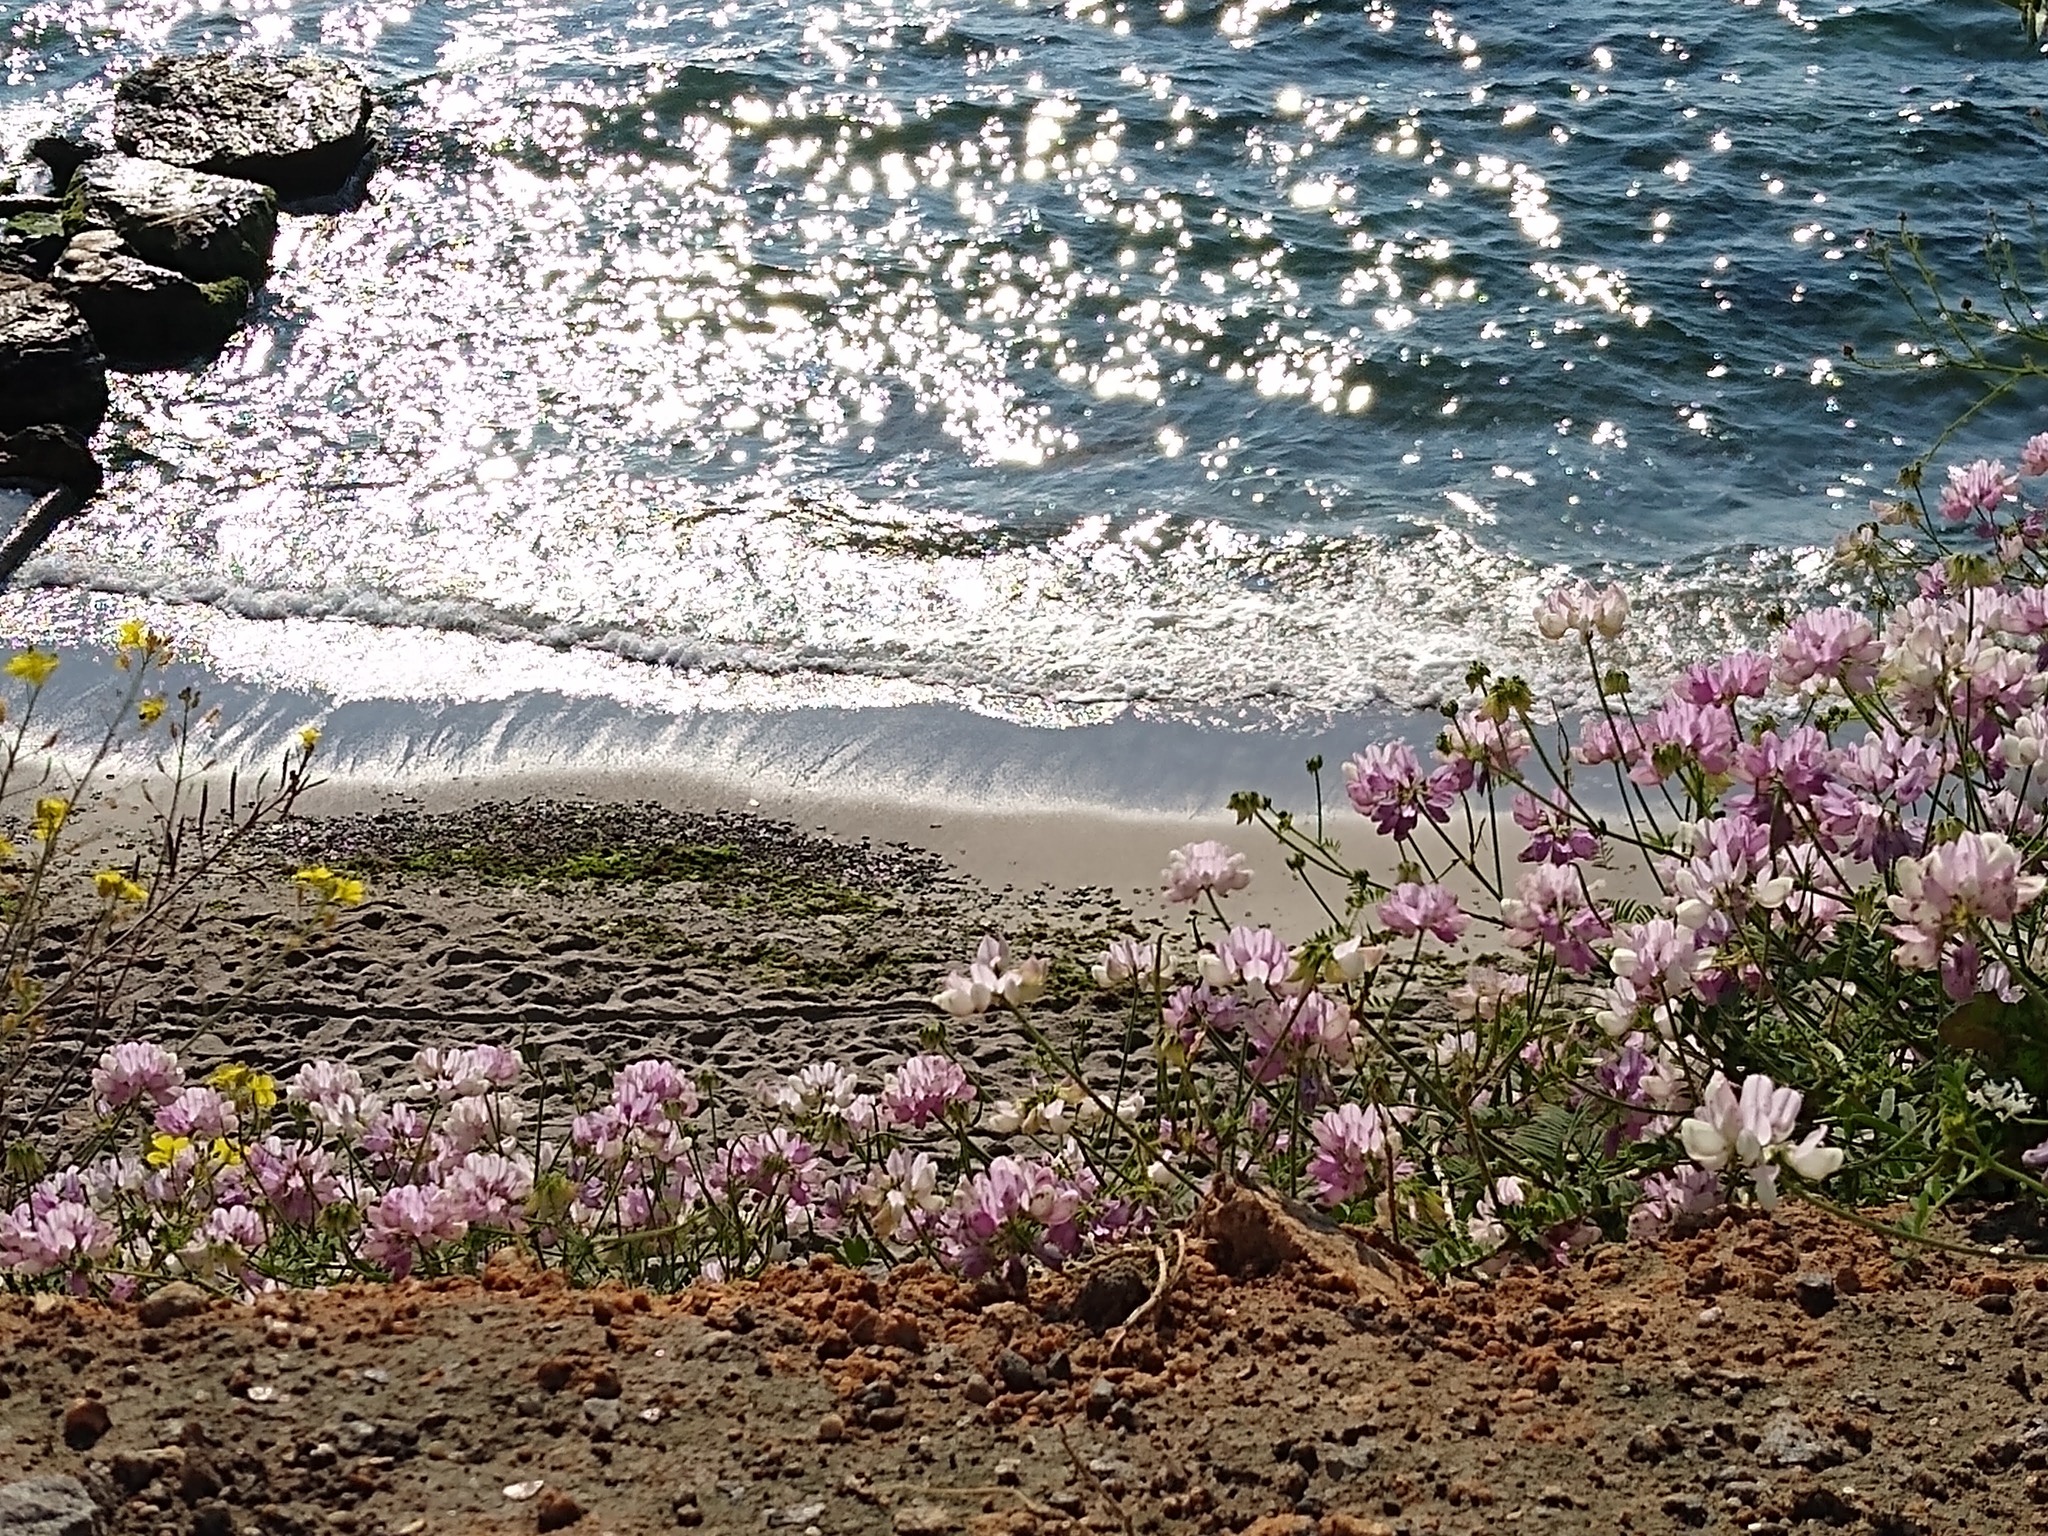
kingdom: Plantae
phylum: Tracheophyta
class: Magnoliopsida
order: Fabales
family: Fabaceae
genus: Coronilla
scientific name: Coronilla varia
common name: Crownvetch
